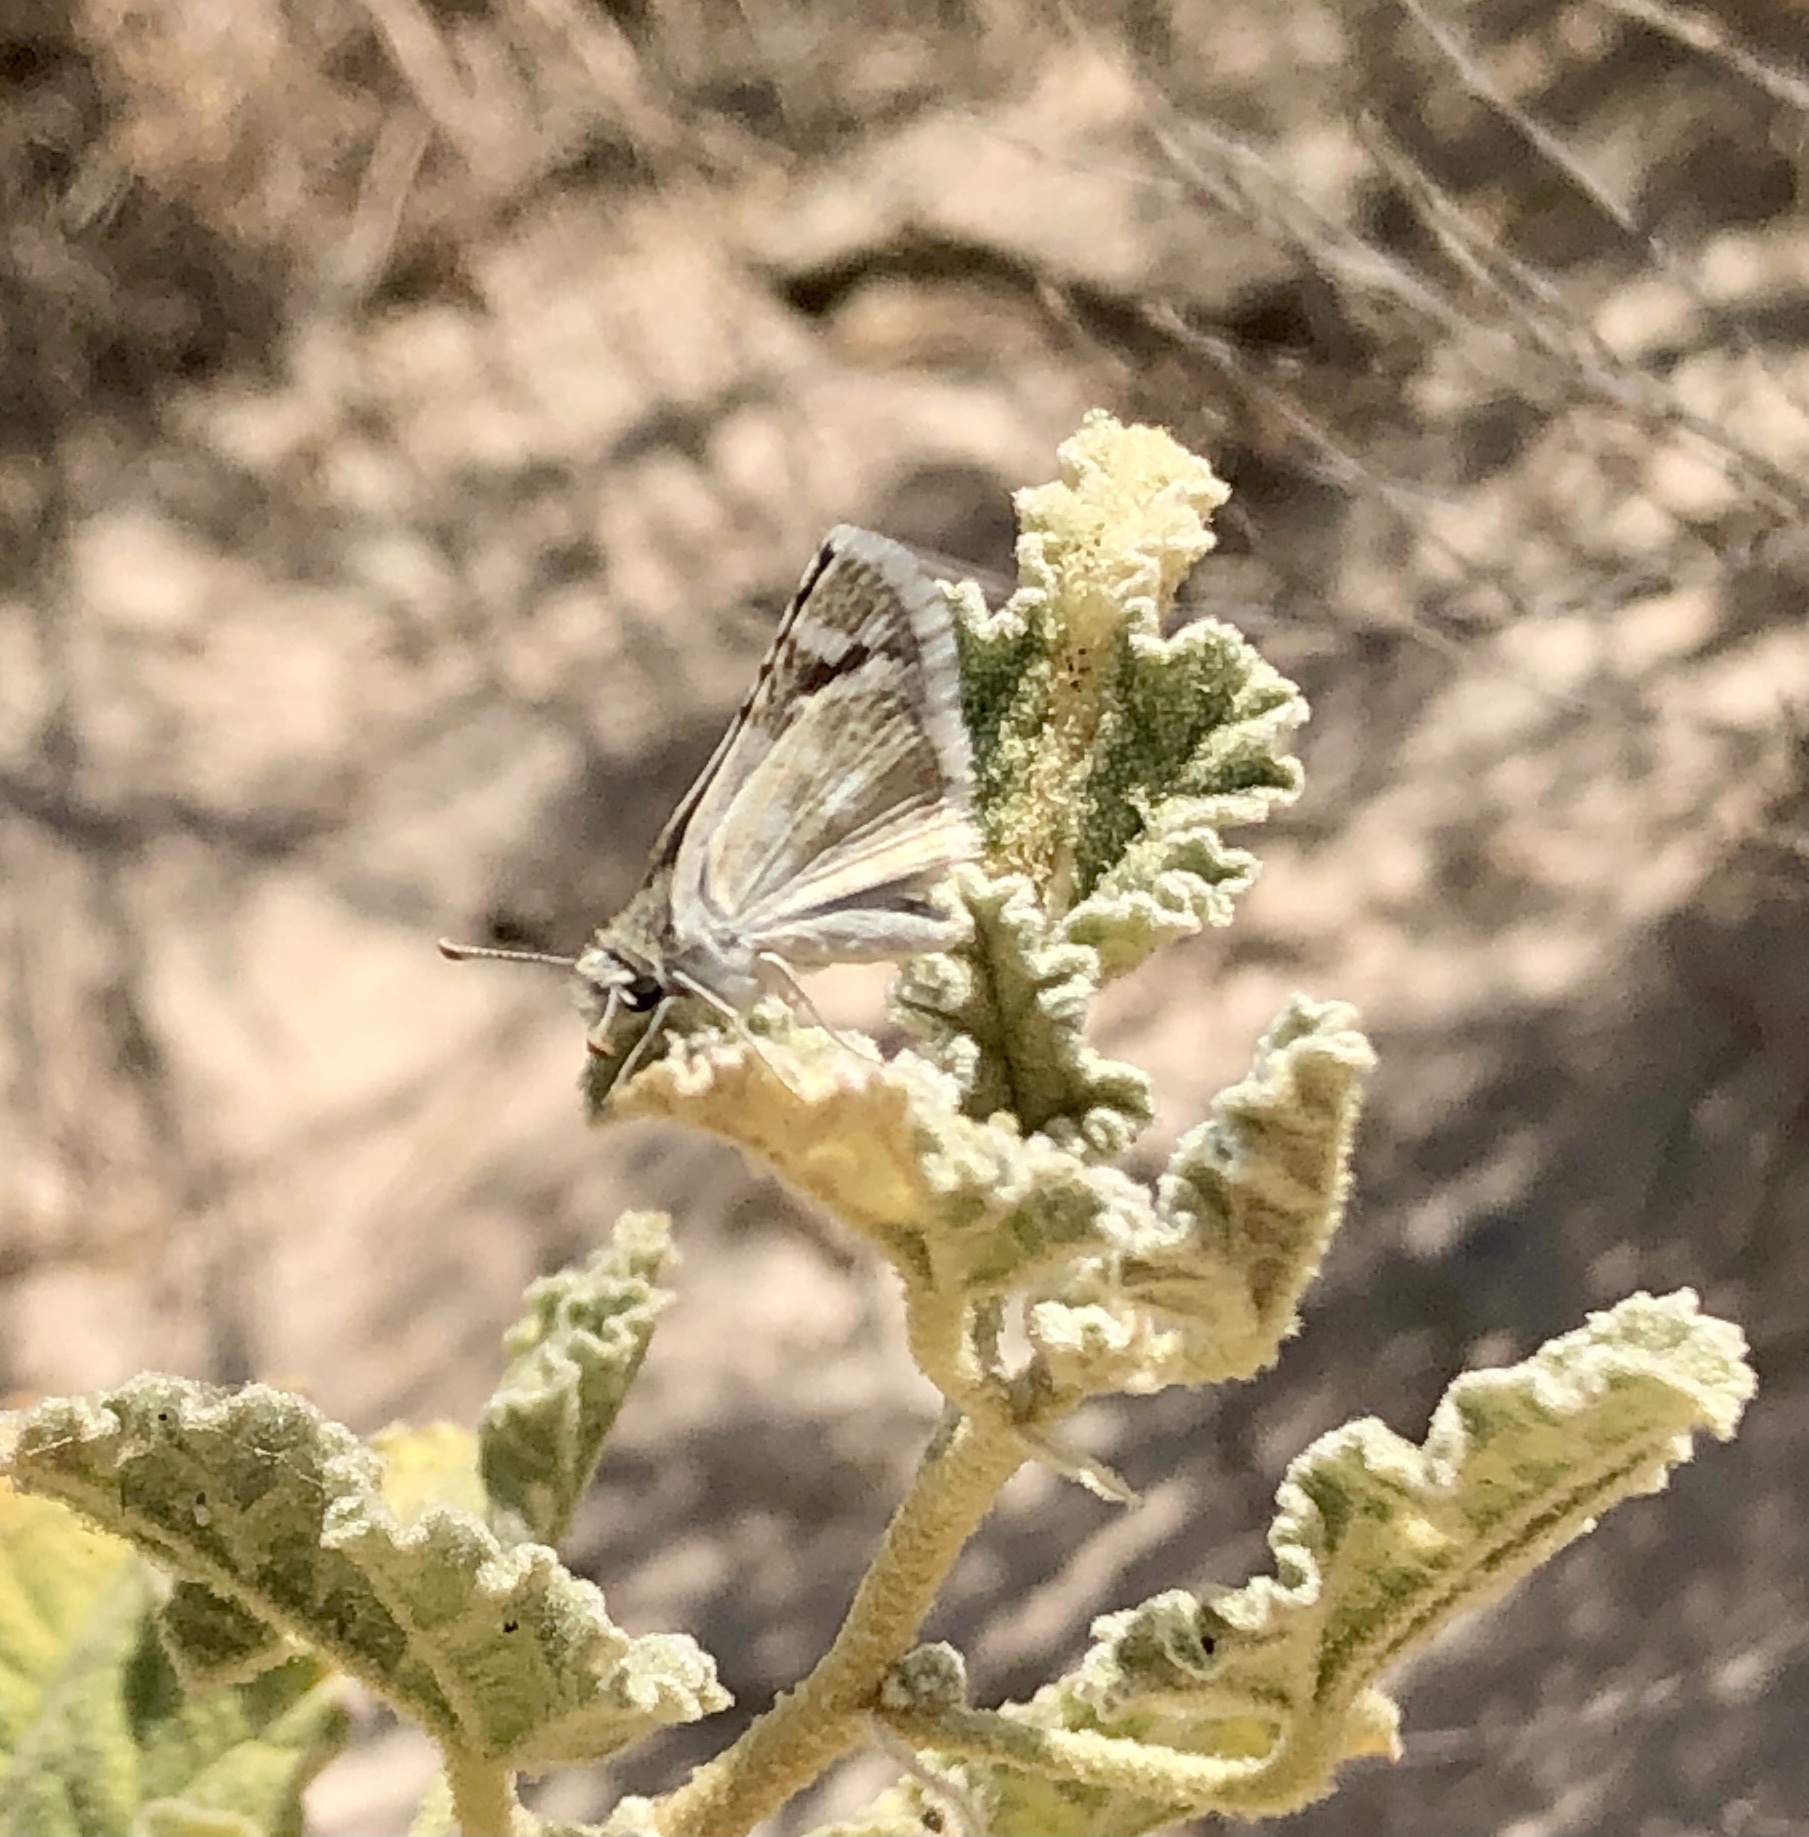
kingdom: Animalia
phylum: Arthropoda
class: Insecta
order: Lepidoptera
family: Hesperiidae
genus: Pyrgus
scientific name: Pyrgus scriptura
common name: Small checkered-skipper
